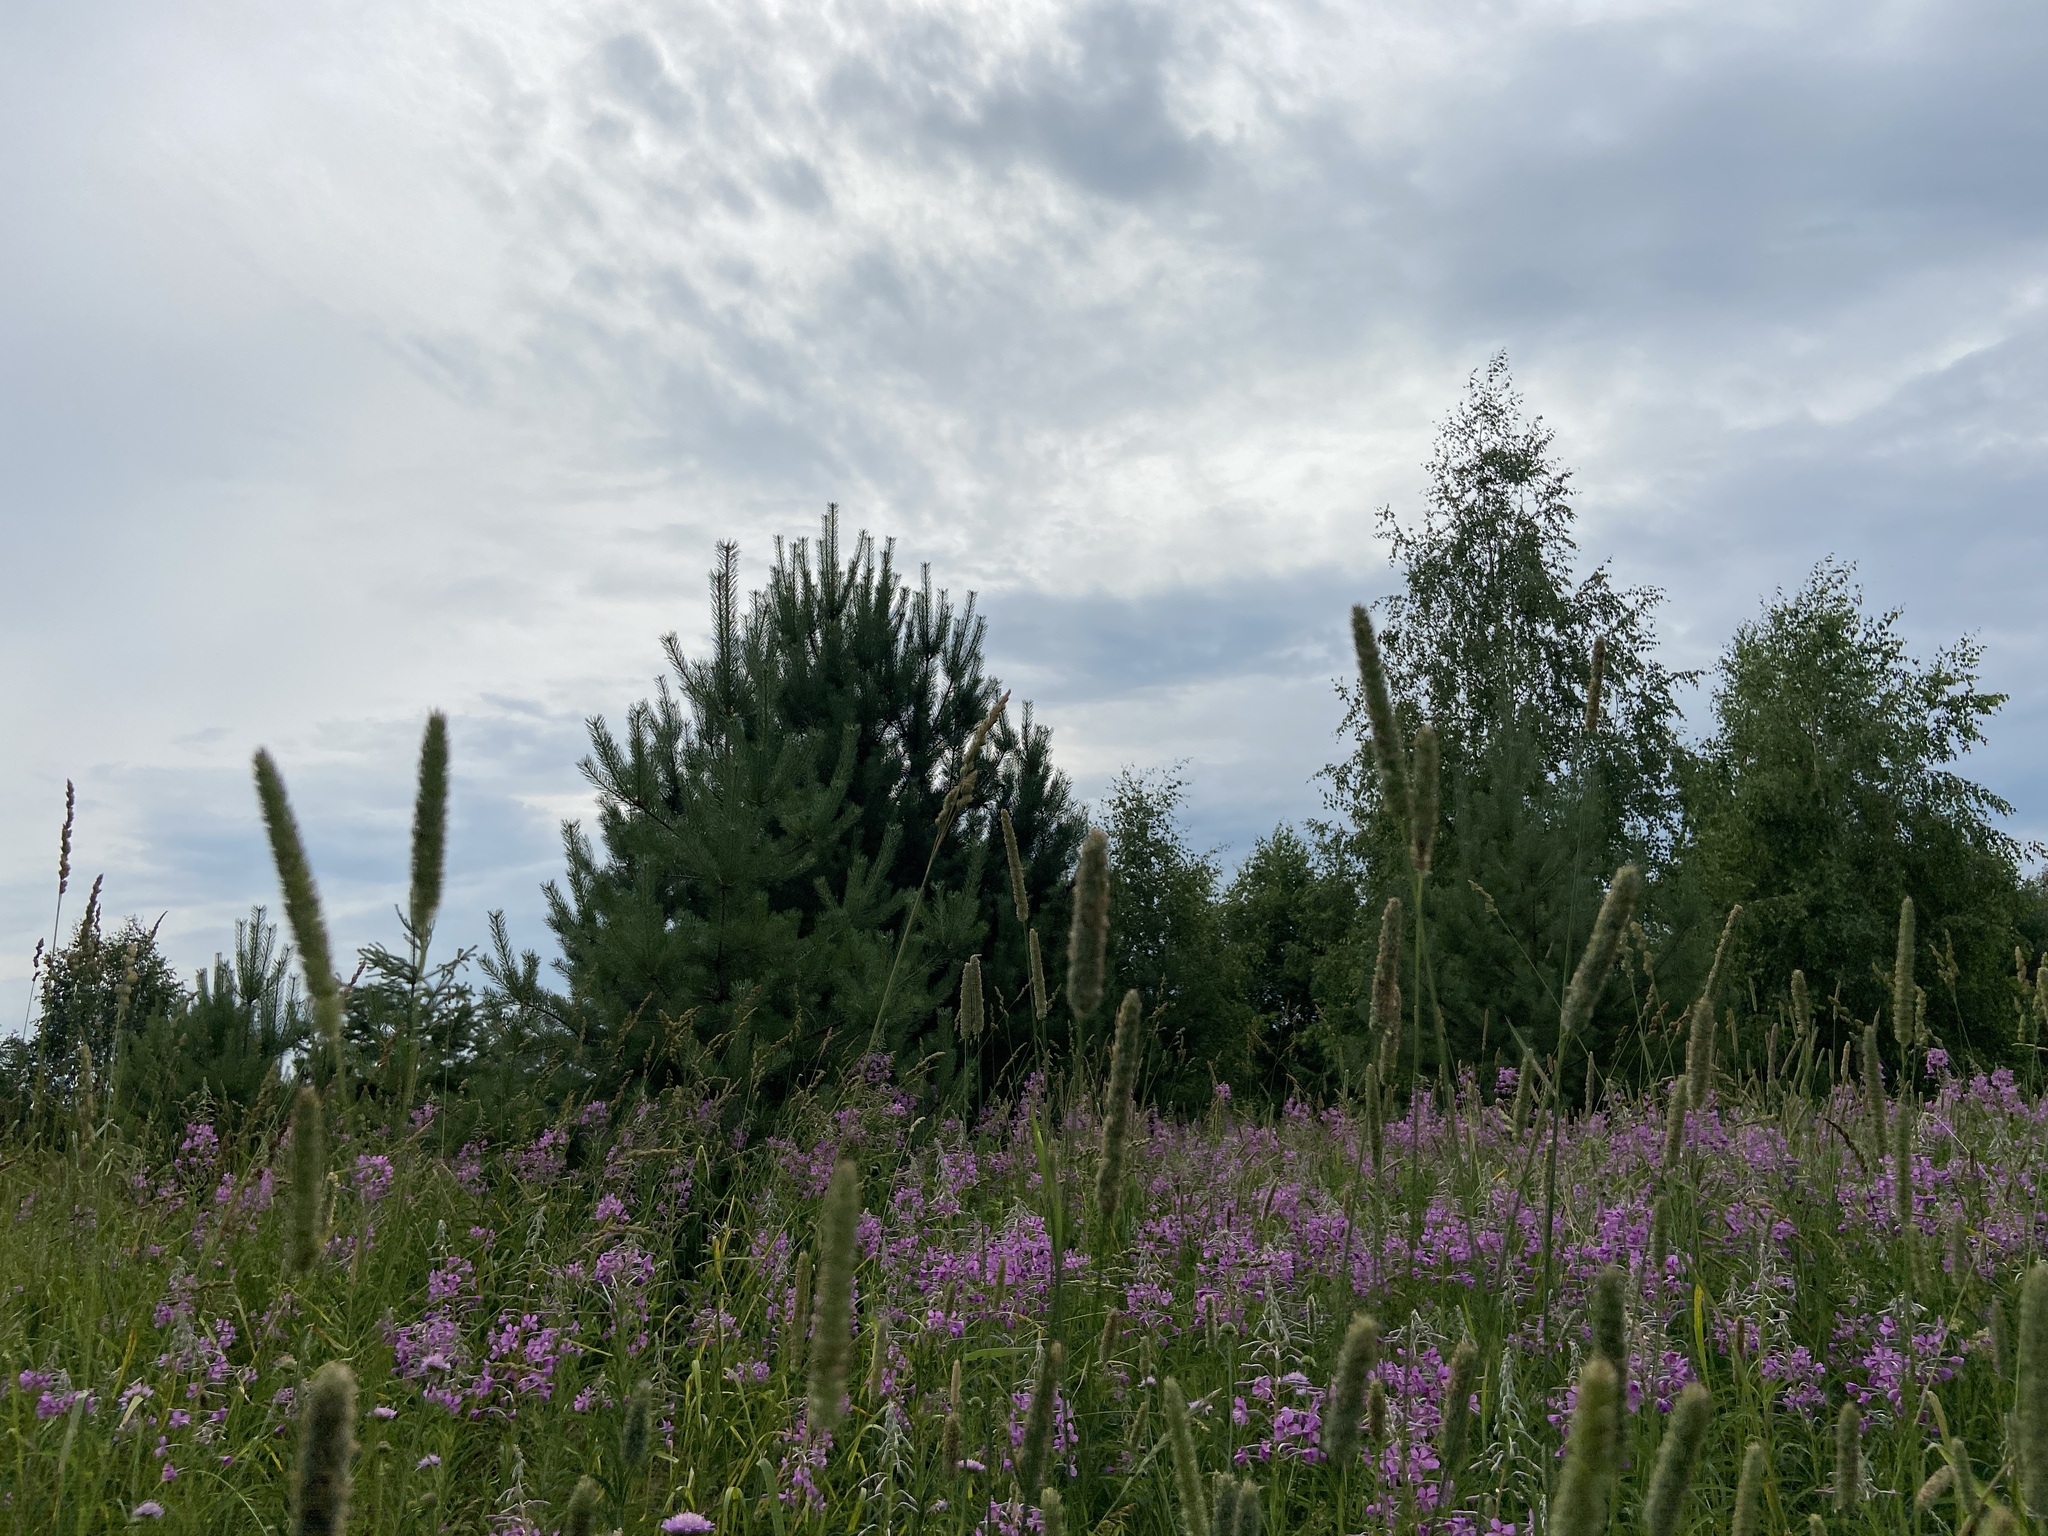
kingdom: Plantae
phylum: Tracheophyta
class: Magnoliopsida
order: Myrtales
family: Onagraceae
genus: Chamaenerion
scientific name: Chamaenerion angustifolium
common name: Fireweed
